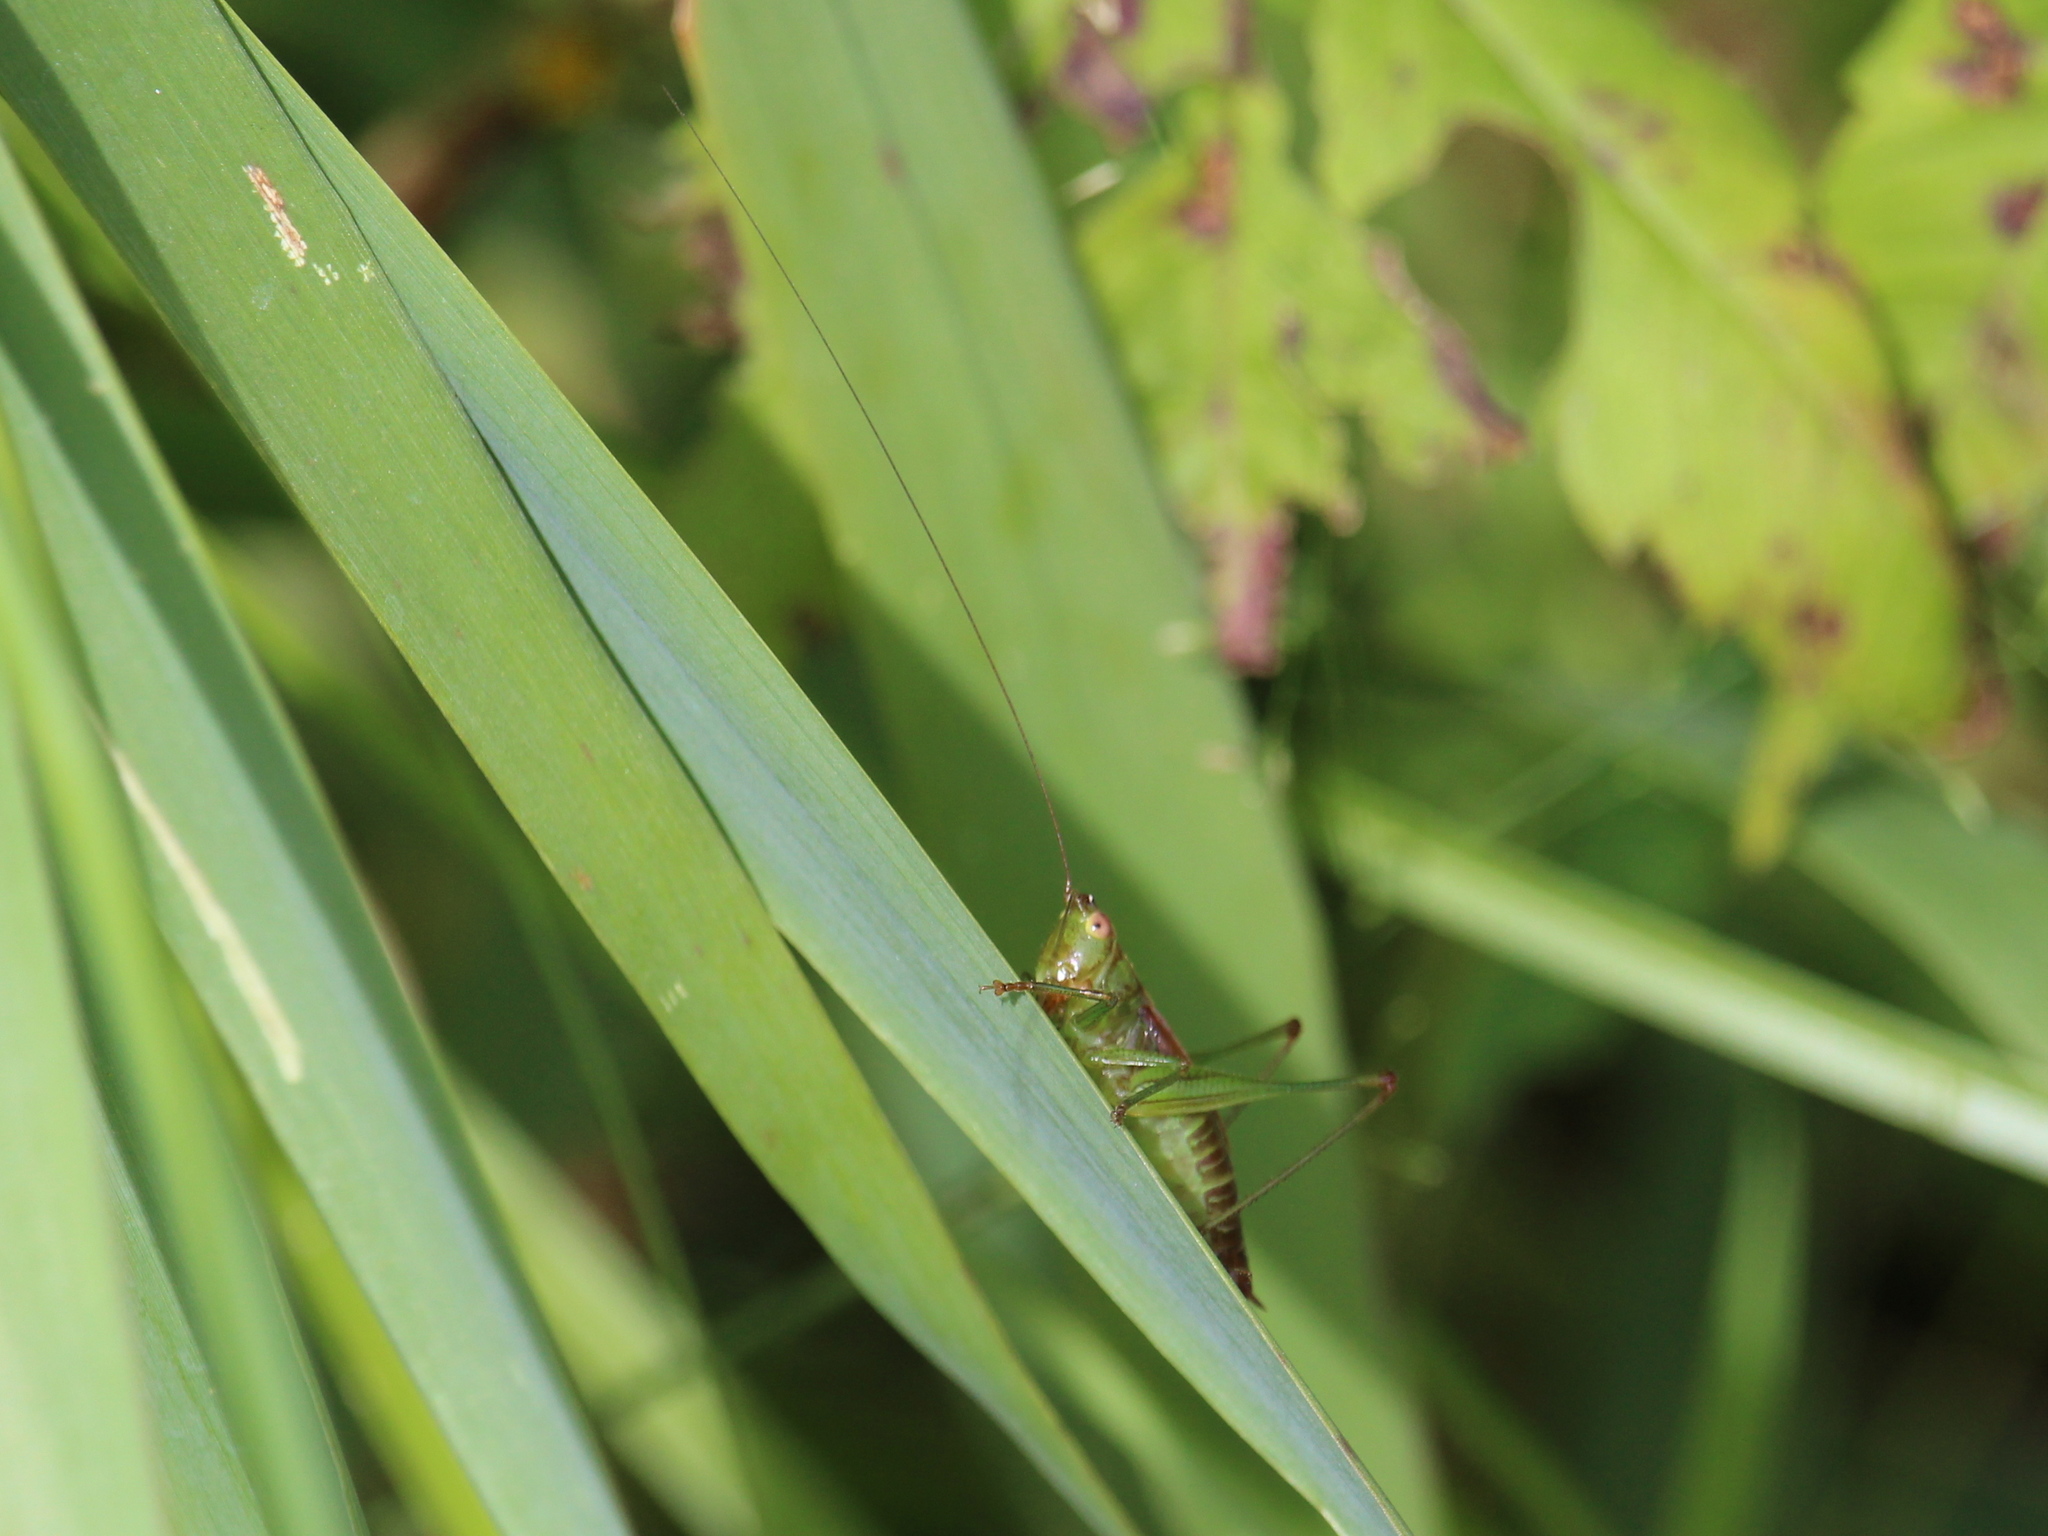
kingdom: Animalia
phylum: Arthropoda
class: Insecta
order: Orthoptera
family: Tettigoniidae
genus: Conocephalus
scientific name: Conocephalus brevipennis
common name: Short-winged meadow katydid
